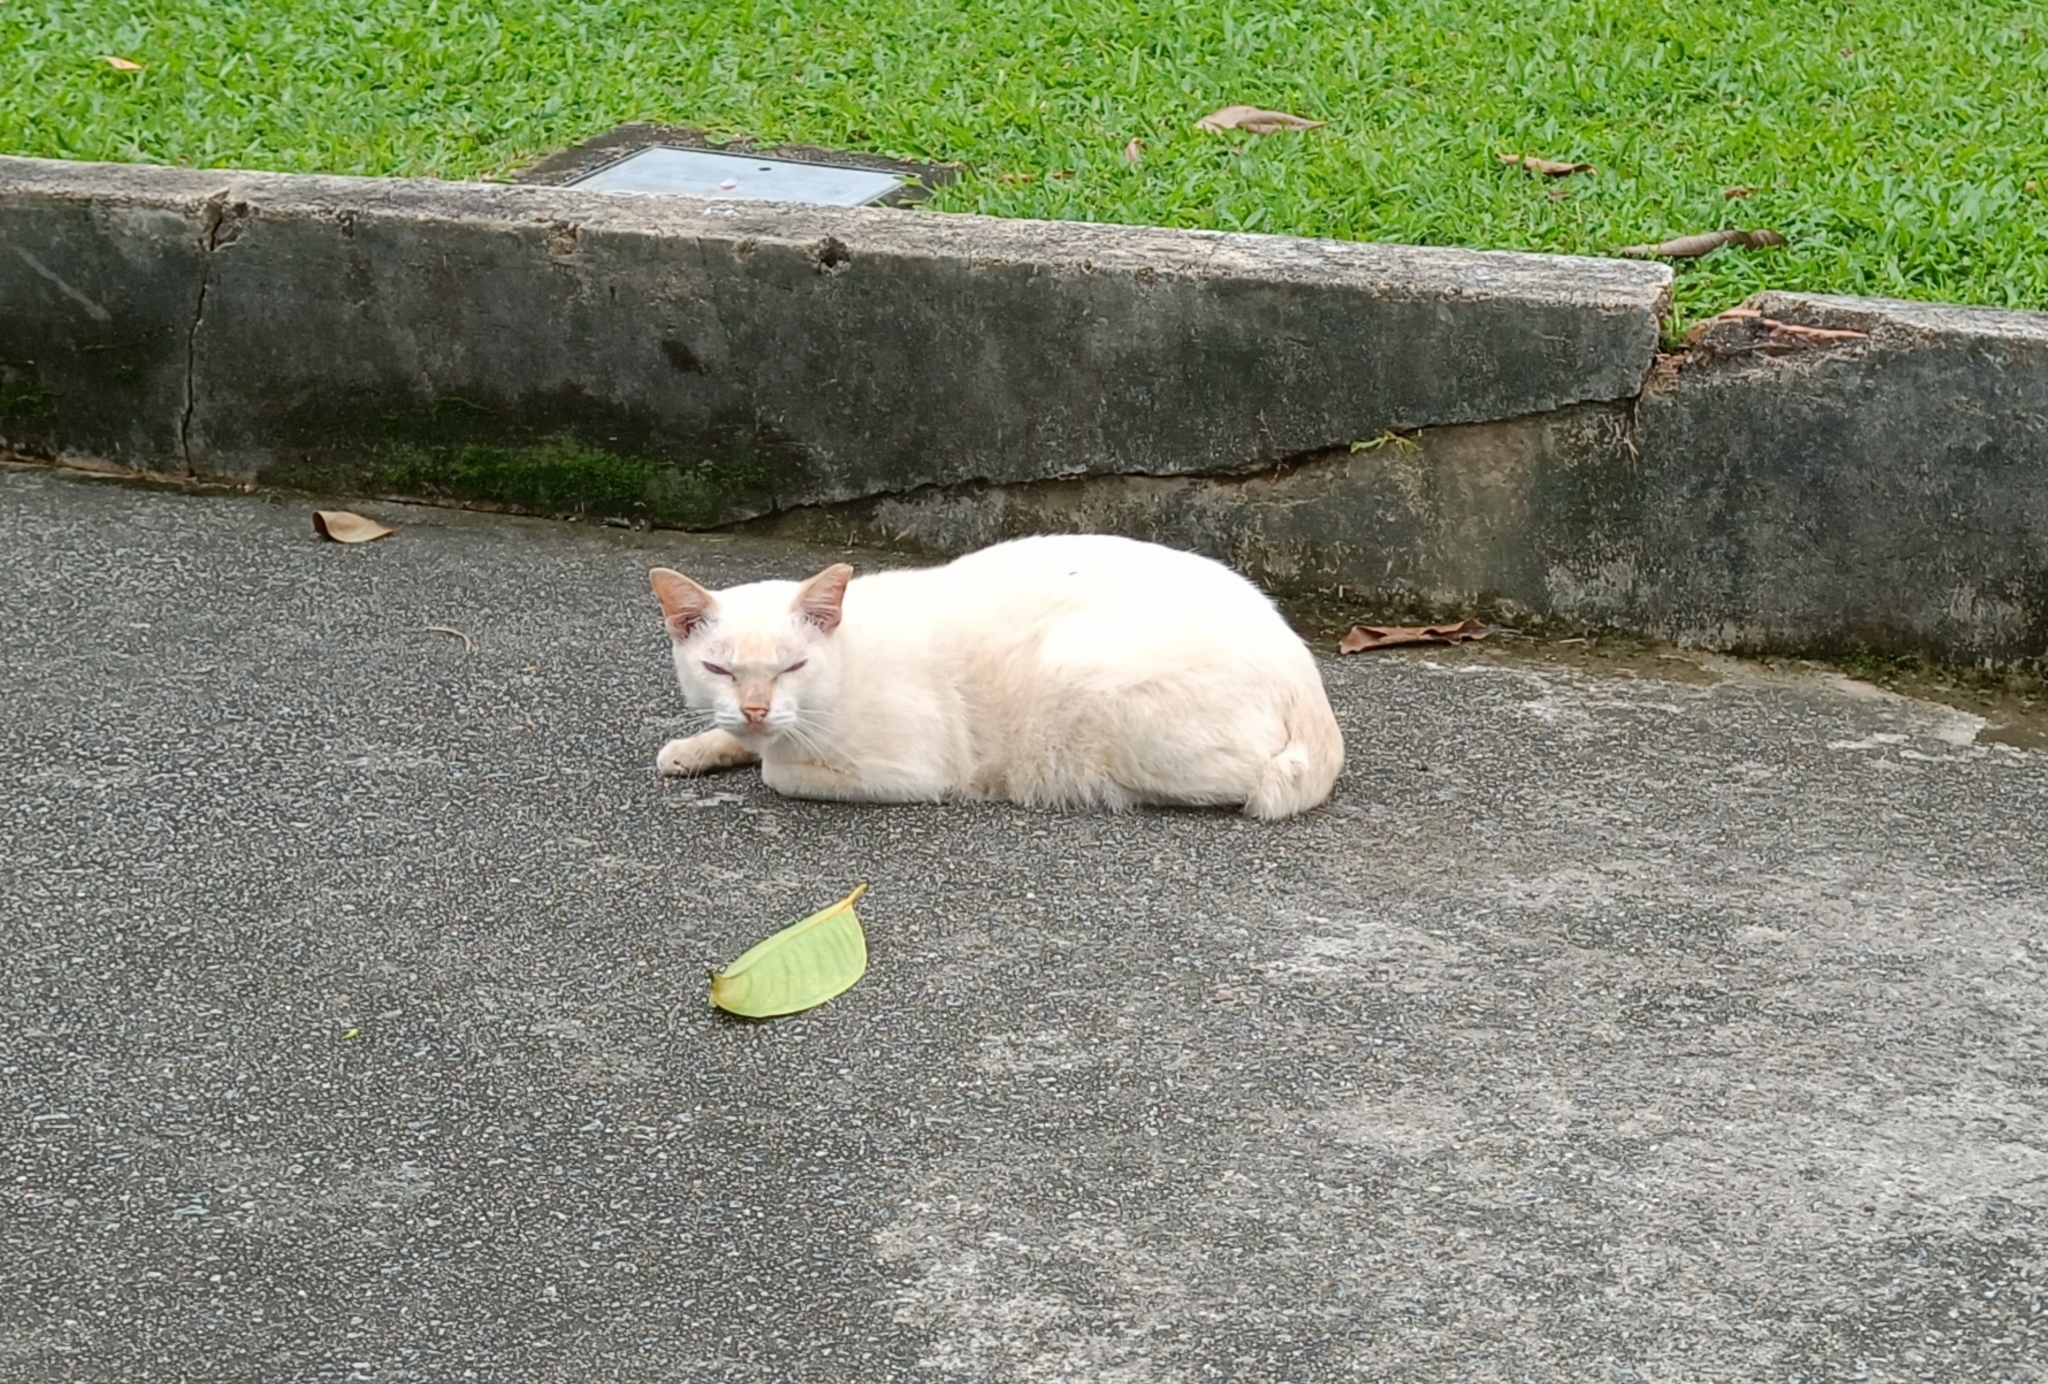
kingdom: Animalia
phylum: Chordata
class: Mammalia
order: Carnivora
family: Felidae
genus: Felis
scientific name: Felis catus
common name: Domestic cat
